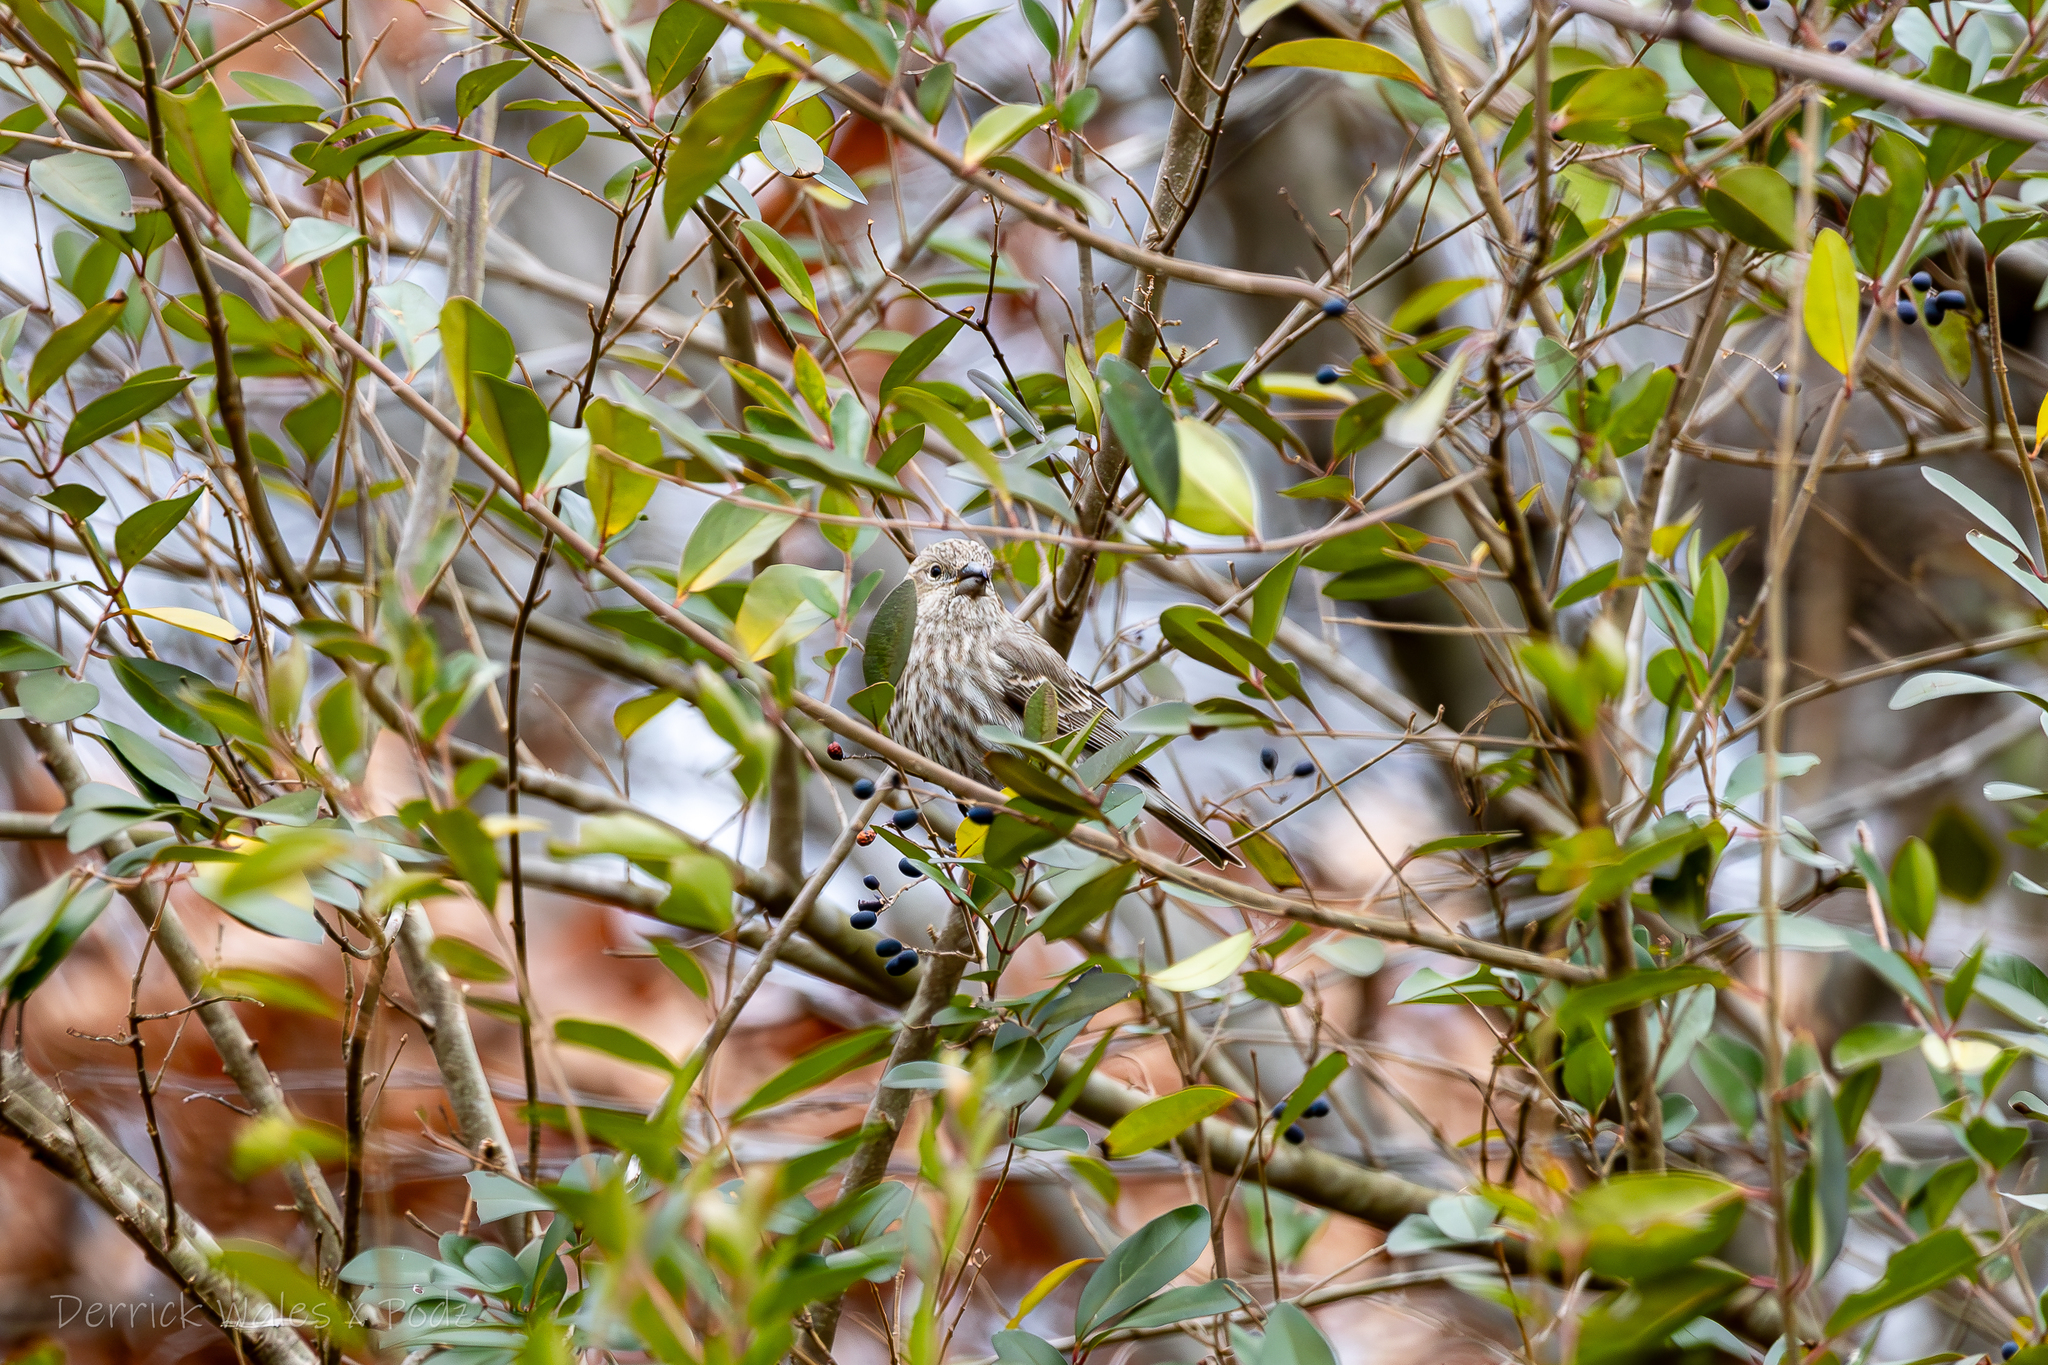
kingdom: Animalia
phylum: Chordata
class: Aves
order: Passeriformes
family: Fringillidae
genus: Haemorhous
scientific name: Haemorhous mexicanus
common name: House finch
